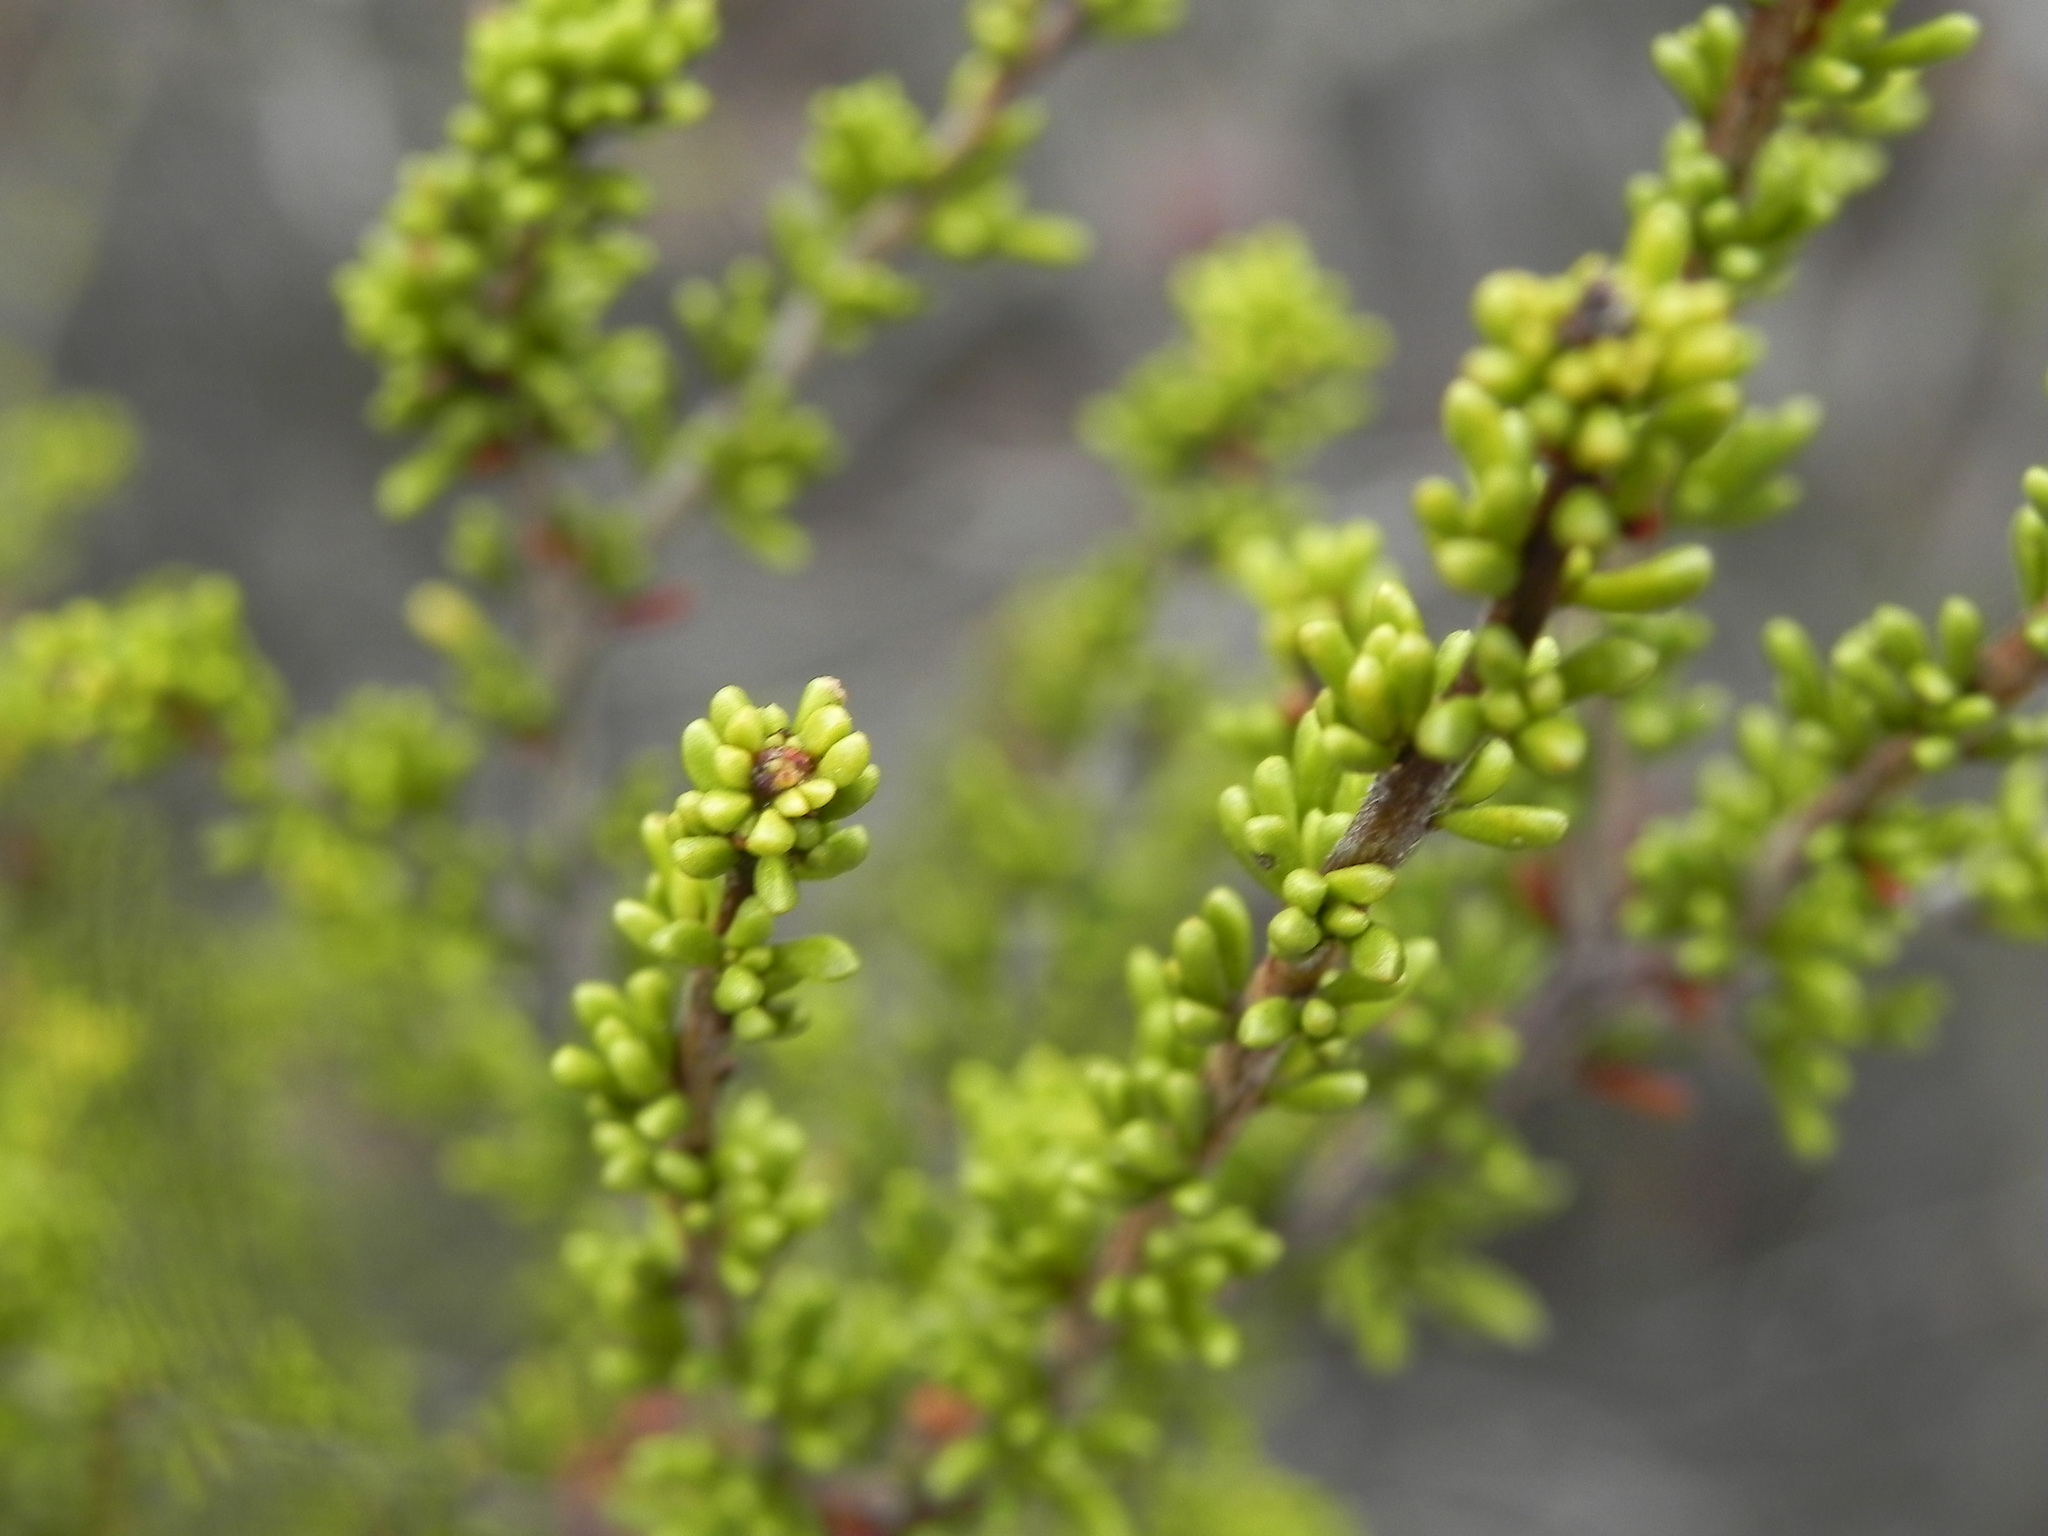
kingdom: Plantae
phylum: Tracheophyta
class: Magnoliopsida
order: Rosales
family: Rosaceae
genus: Adenostoma
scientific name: Adenostoma fasciculatum
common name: Chamise
